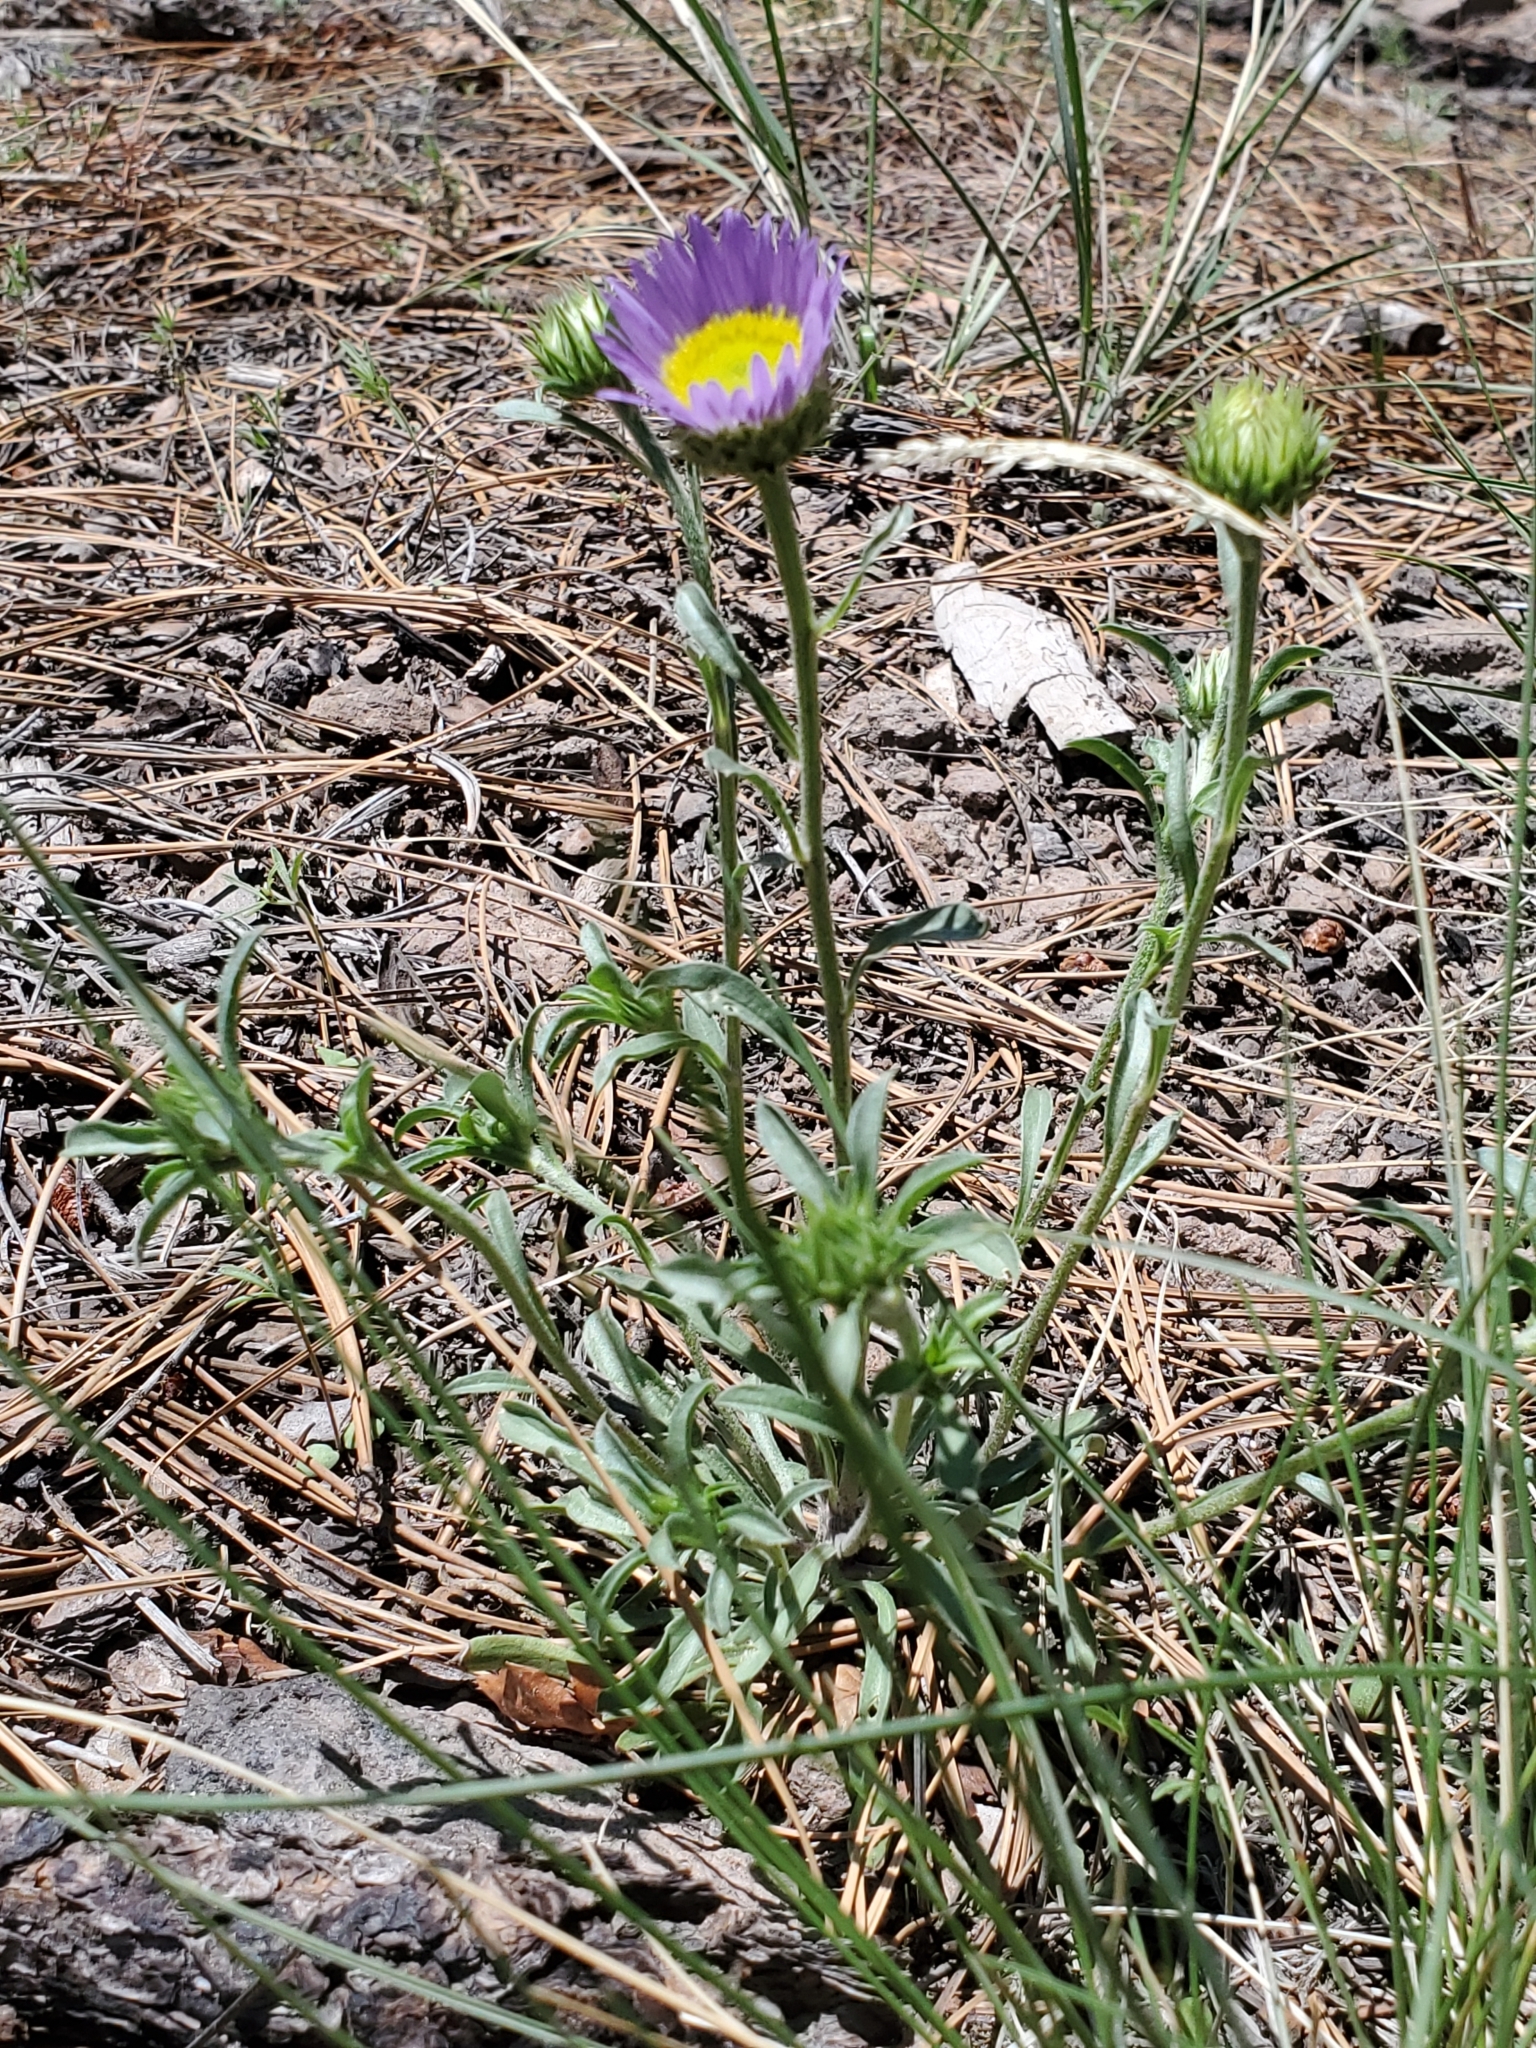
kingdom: Plantae
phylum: Tracheophyta
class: Magnoliopsida
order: Asterales
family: Asteraceae
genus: Townsendia
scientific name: Townsendia eximia
